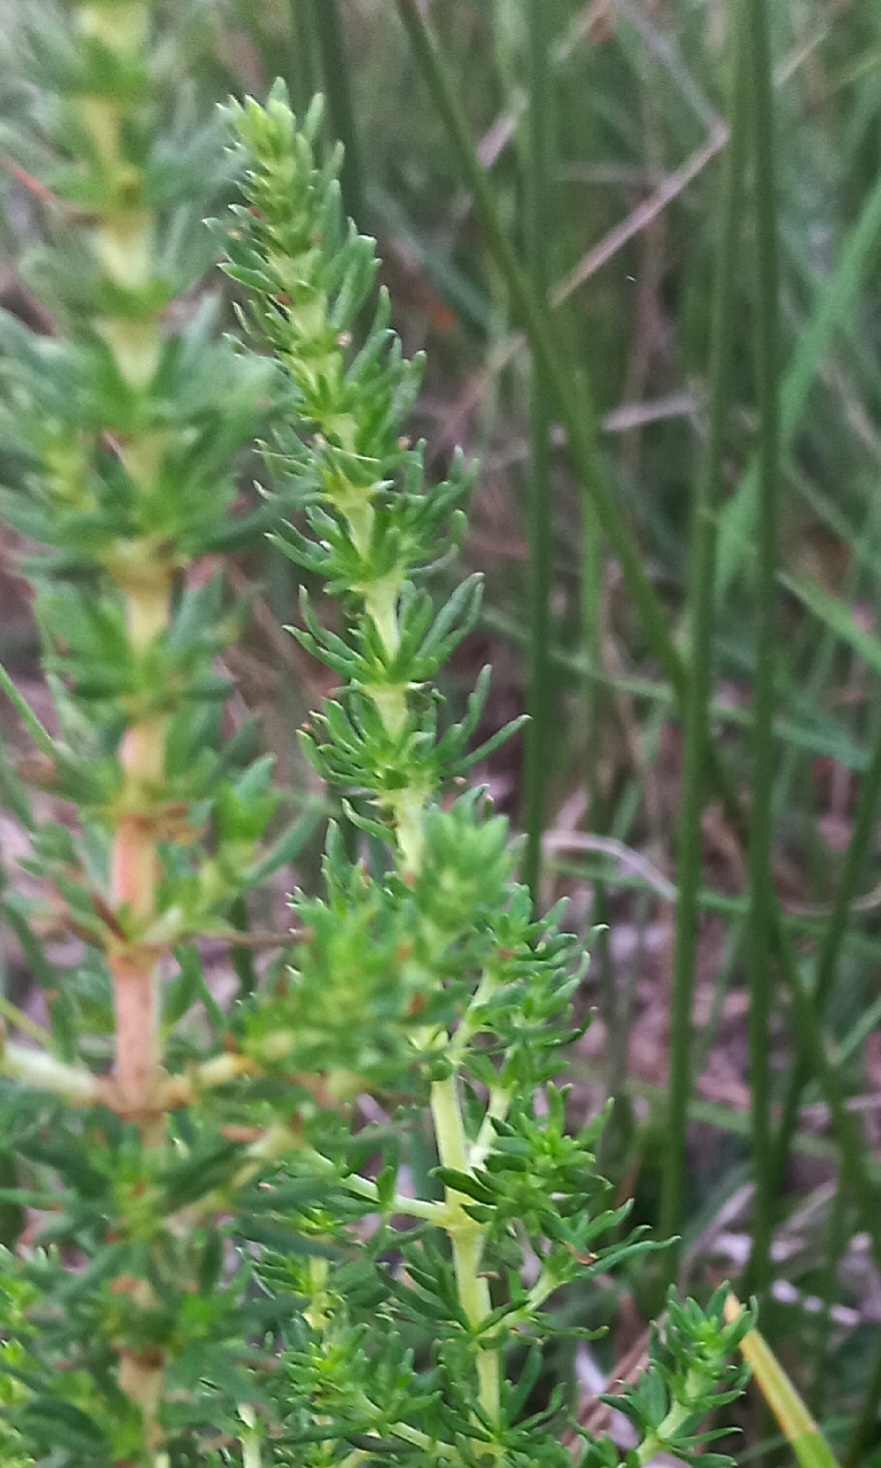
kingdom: Plantae
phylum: Tracheophyta
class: Magnoliopsida
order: Gentianales
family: Rubiaceae
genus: Anthospermum
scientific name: Anthospermum aethiopicum
